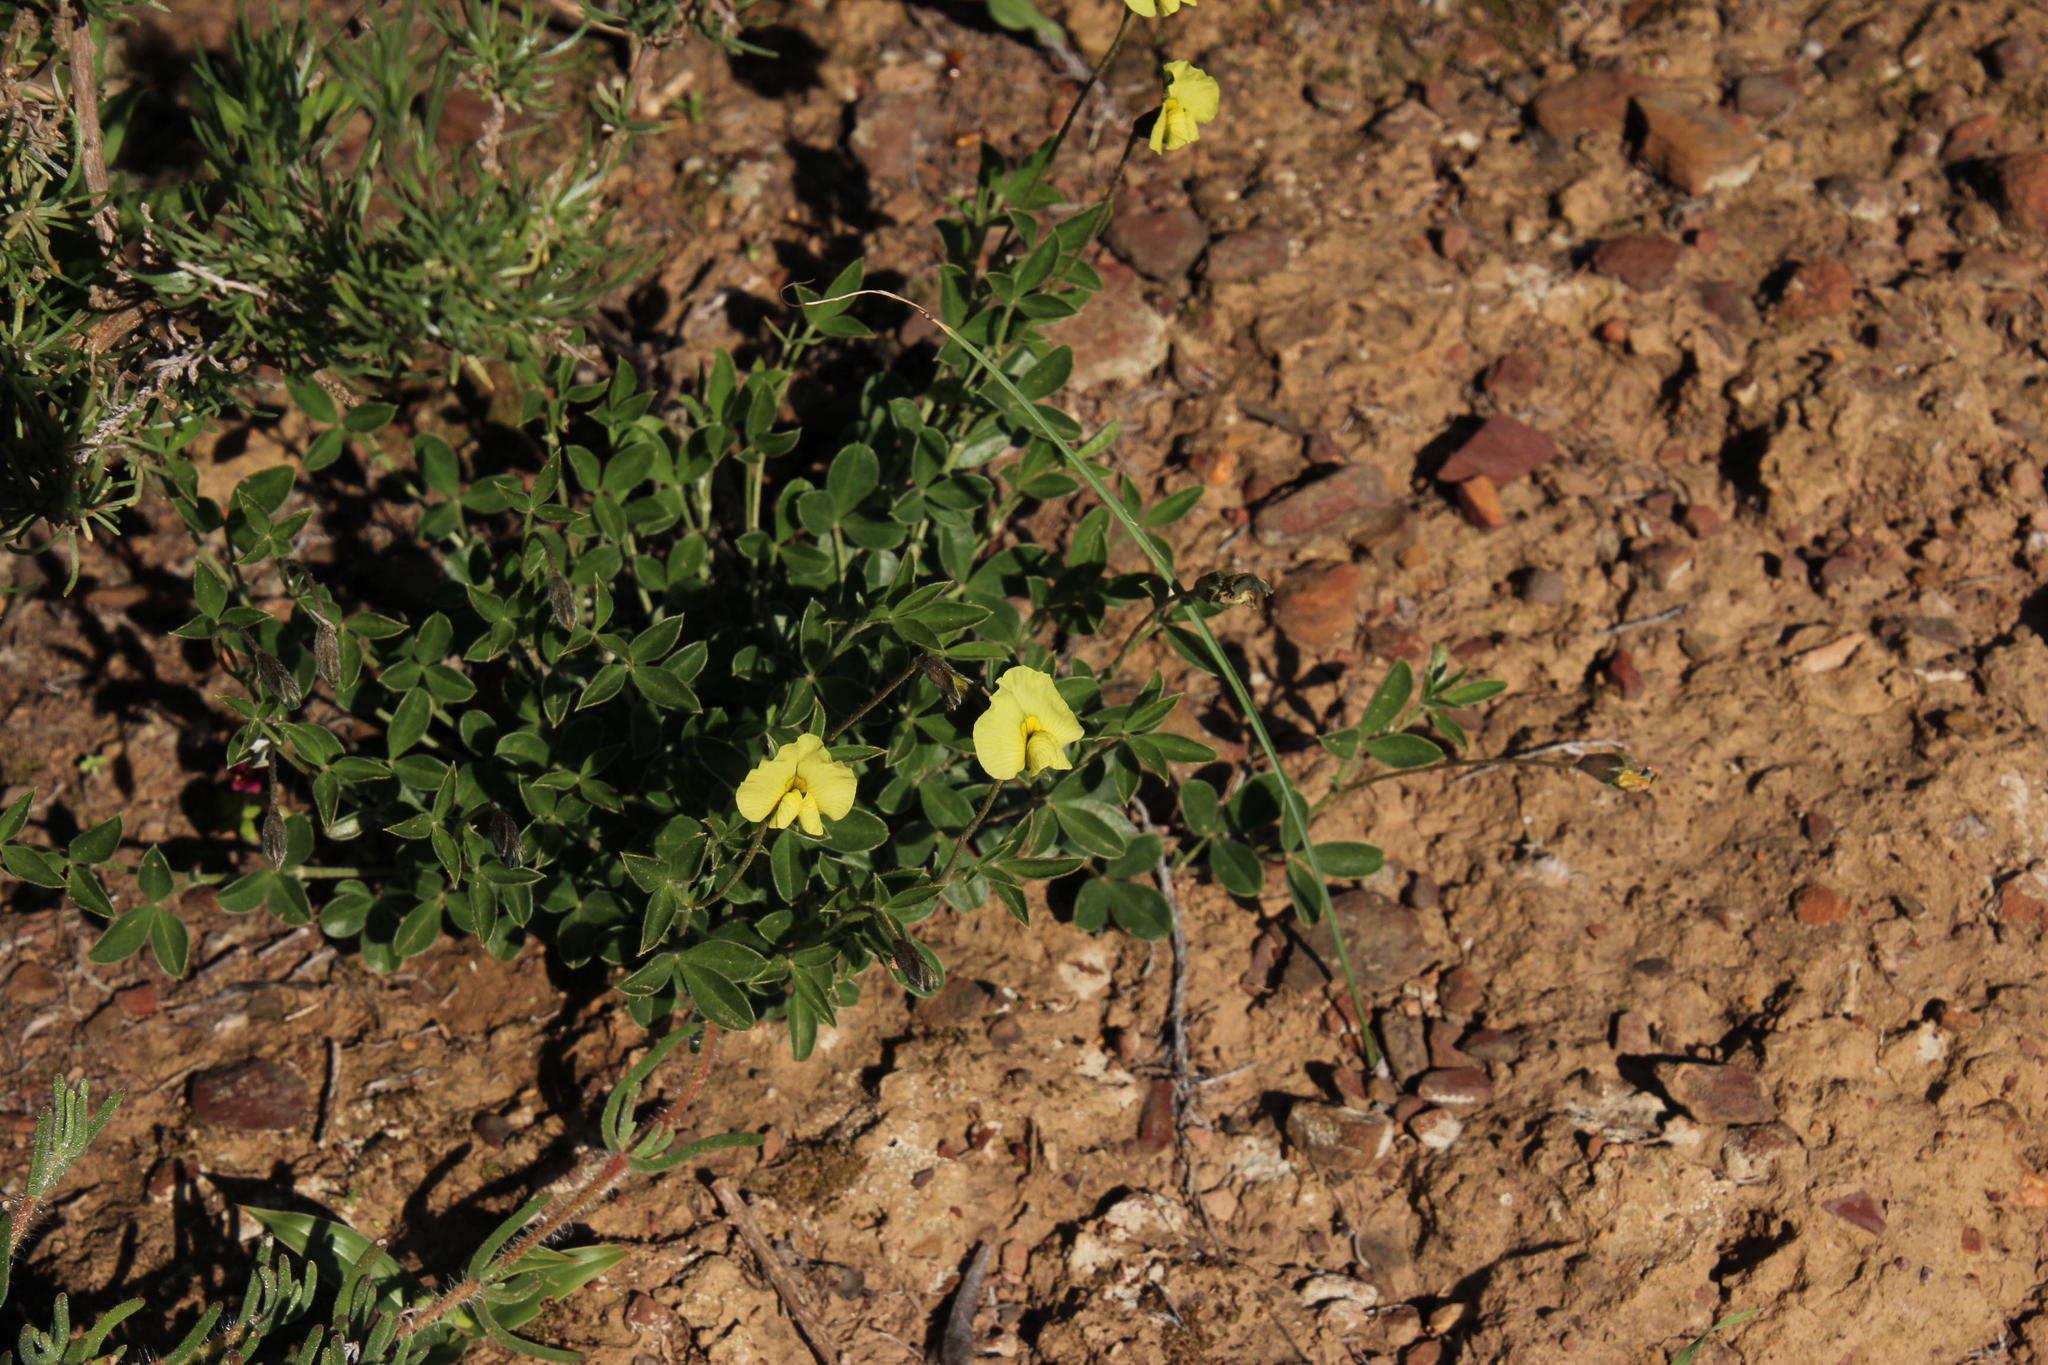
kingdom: Plantae
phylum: Tracheophyta
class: Magnoliopsida
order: Fabales
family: Fabaceae
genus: Lotononis
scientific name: Lotononis prostrata
